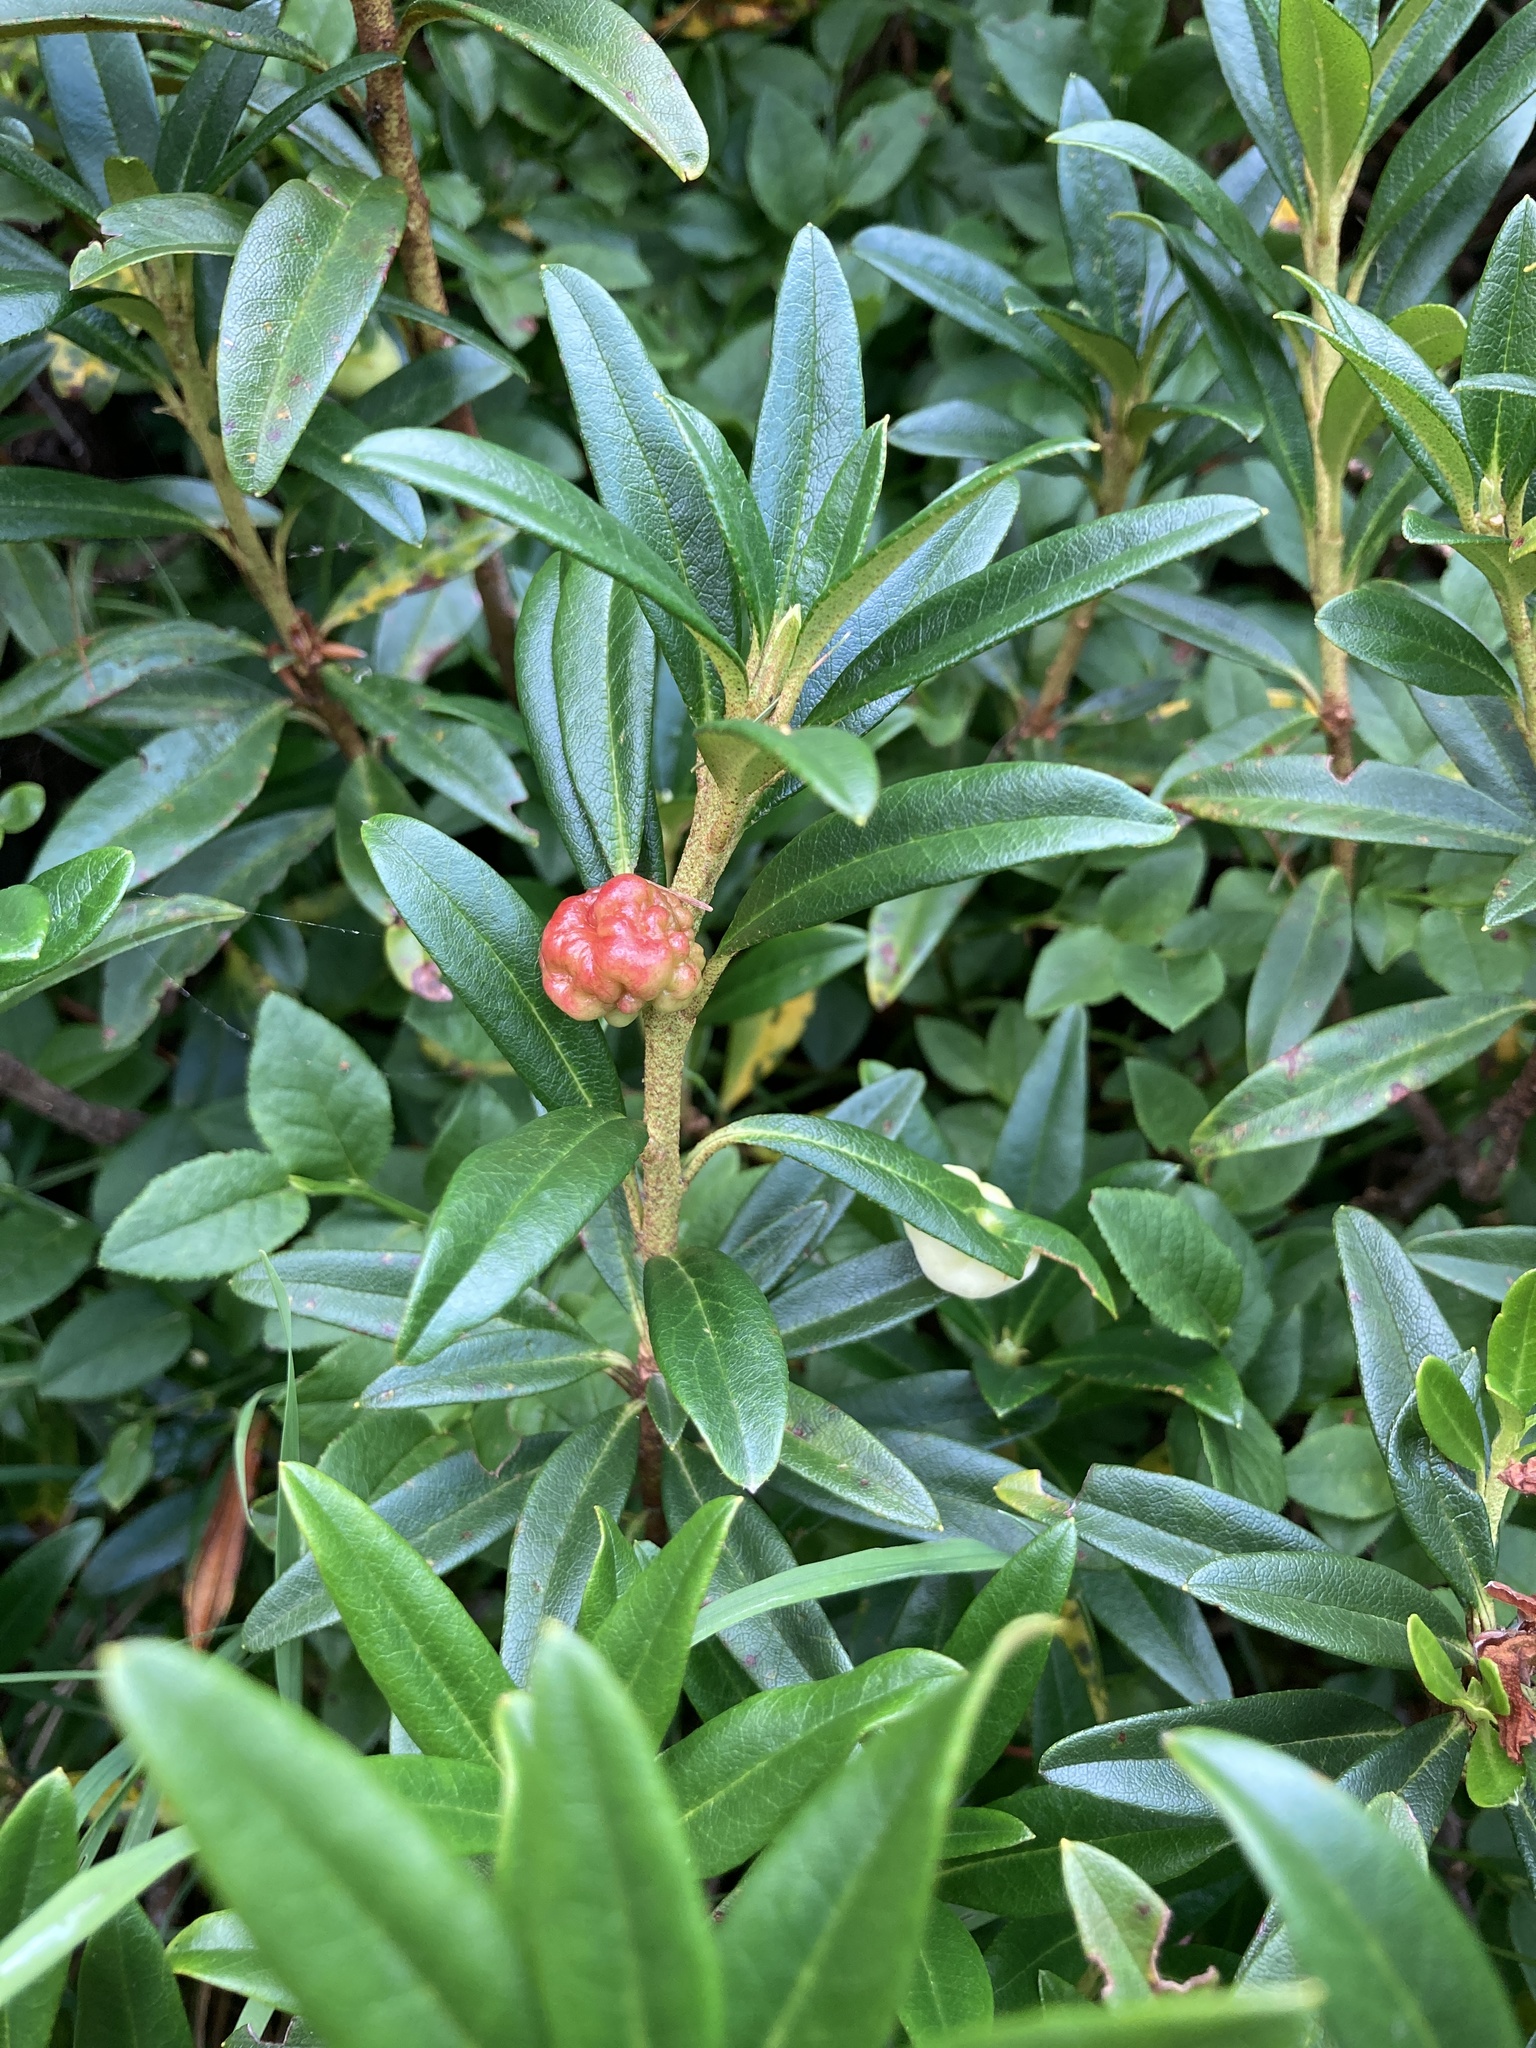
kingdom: Plantae
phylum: Tracheophyta
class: Magnoliopsida
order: Ericales
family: Ericaceae
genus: Rhododendron
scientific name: Rhododendron ferrugineum
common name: Alpenrose
